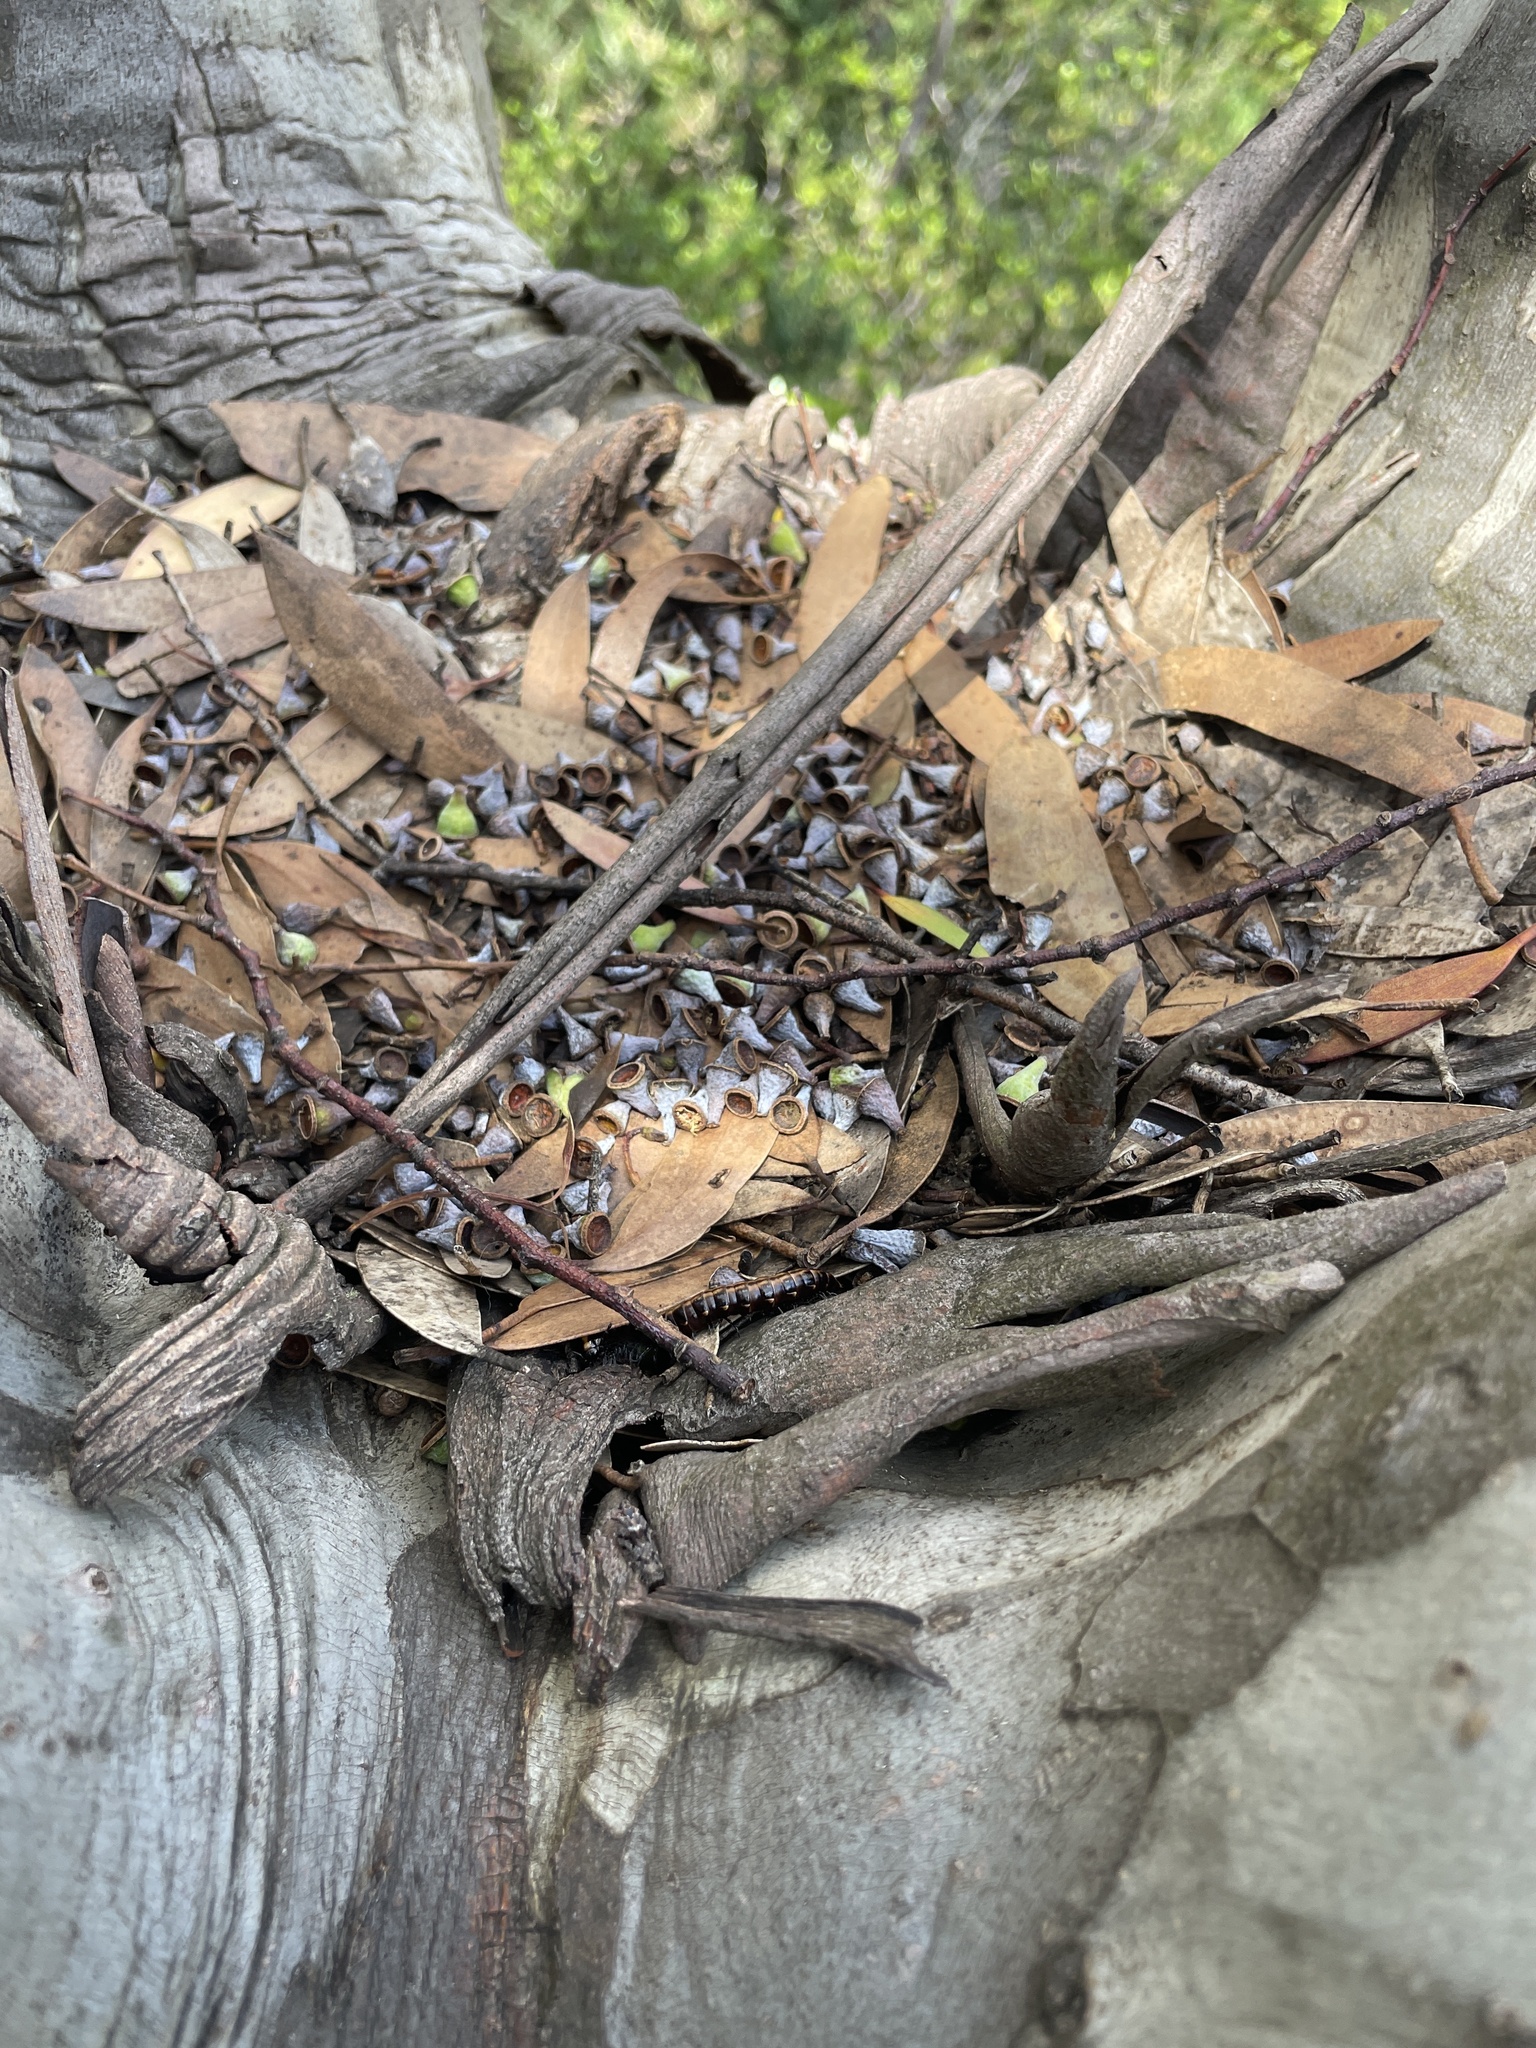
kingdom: Plantae
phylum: Tracheophyta
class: Magnoliopsida
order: Myrtales
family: Myrtaceae
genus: Eucalyptus
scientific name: Eucalyptus pauciflora
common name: Snow gum
